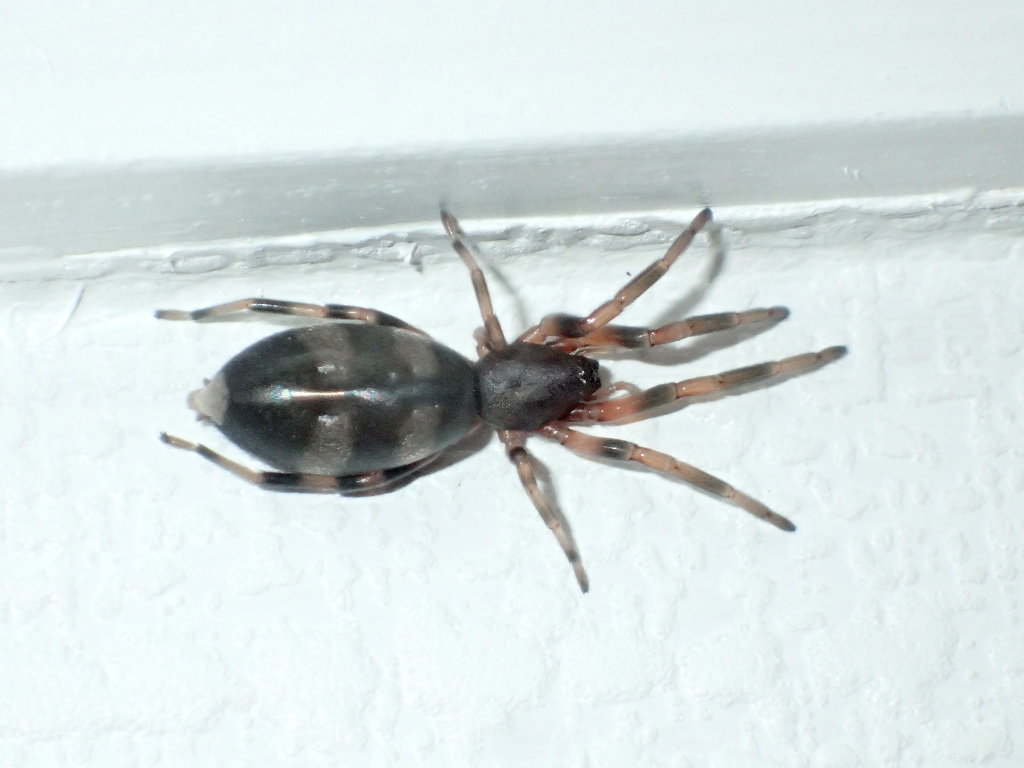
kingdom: Animalia
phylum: Arthropoda
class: Arachnida
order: Araneae
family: Lamponidae
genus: Lampona
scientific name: Lampona murina
